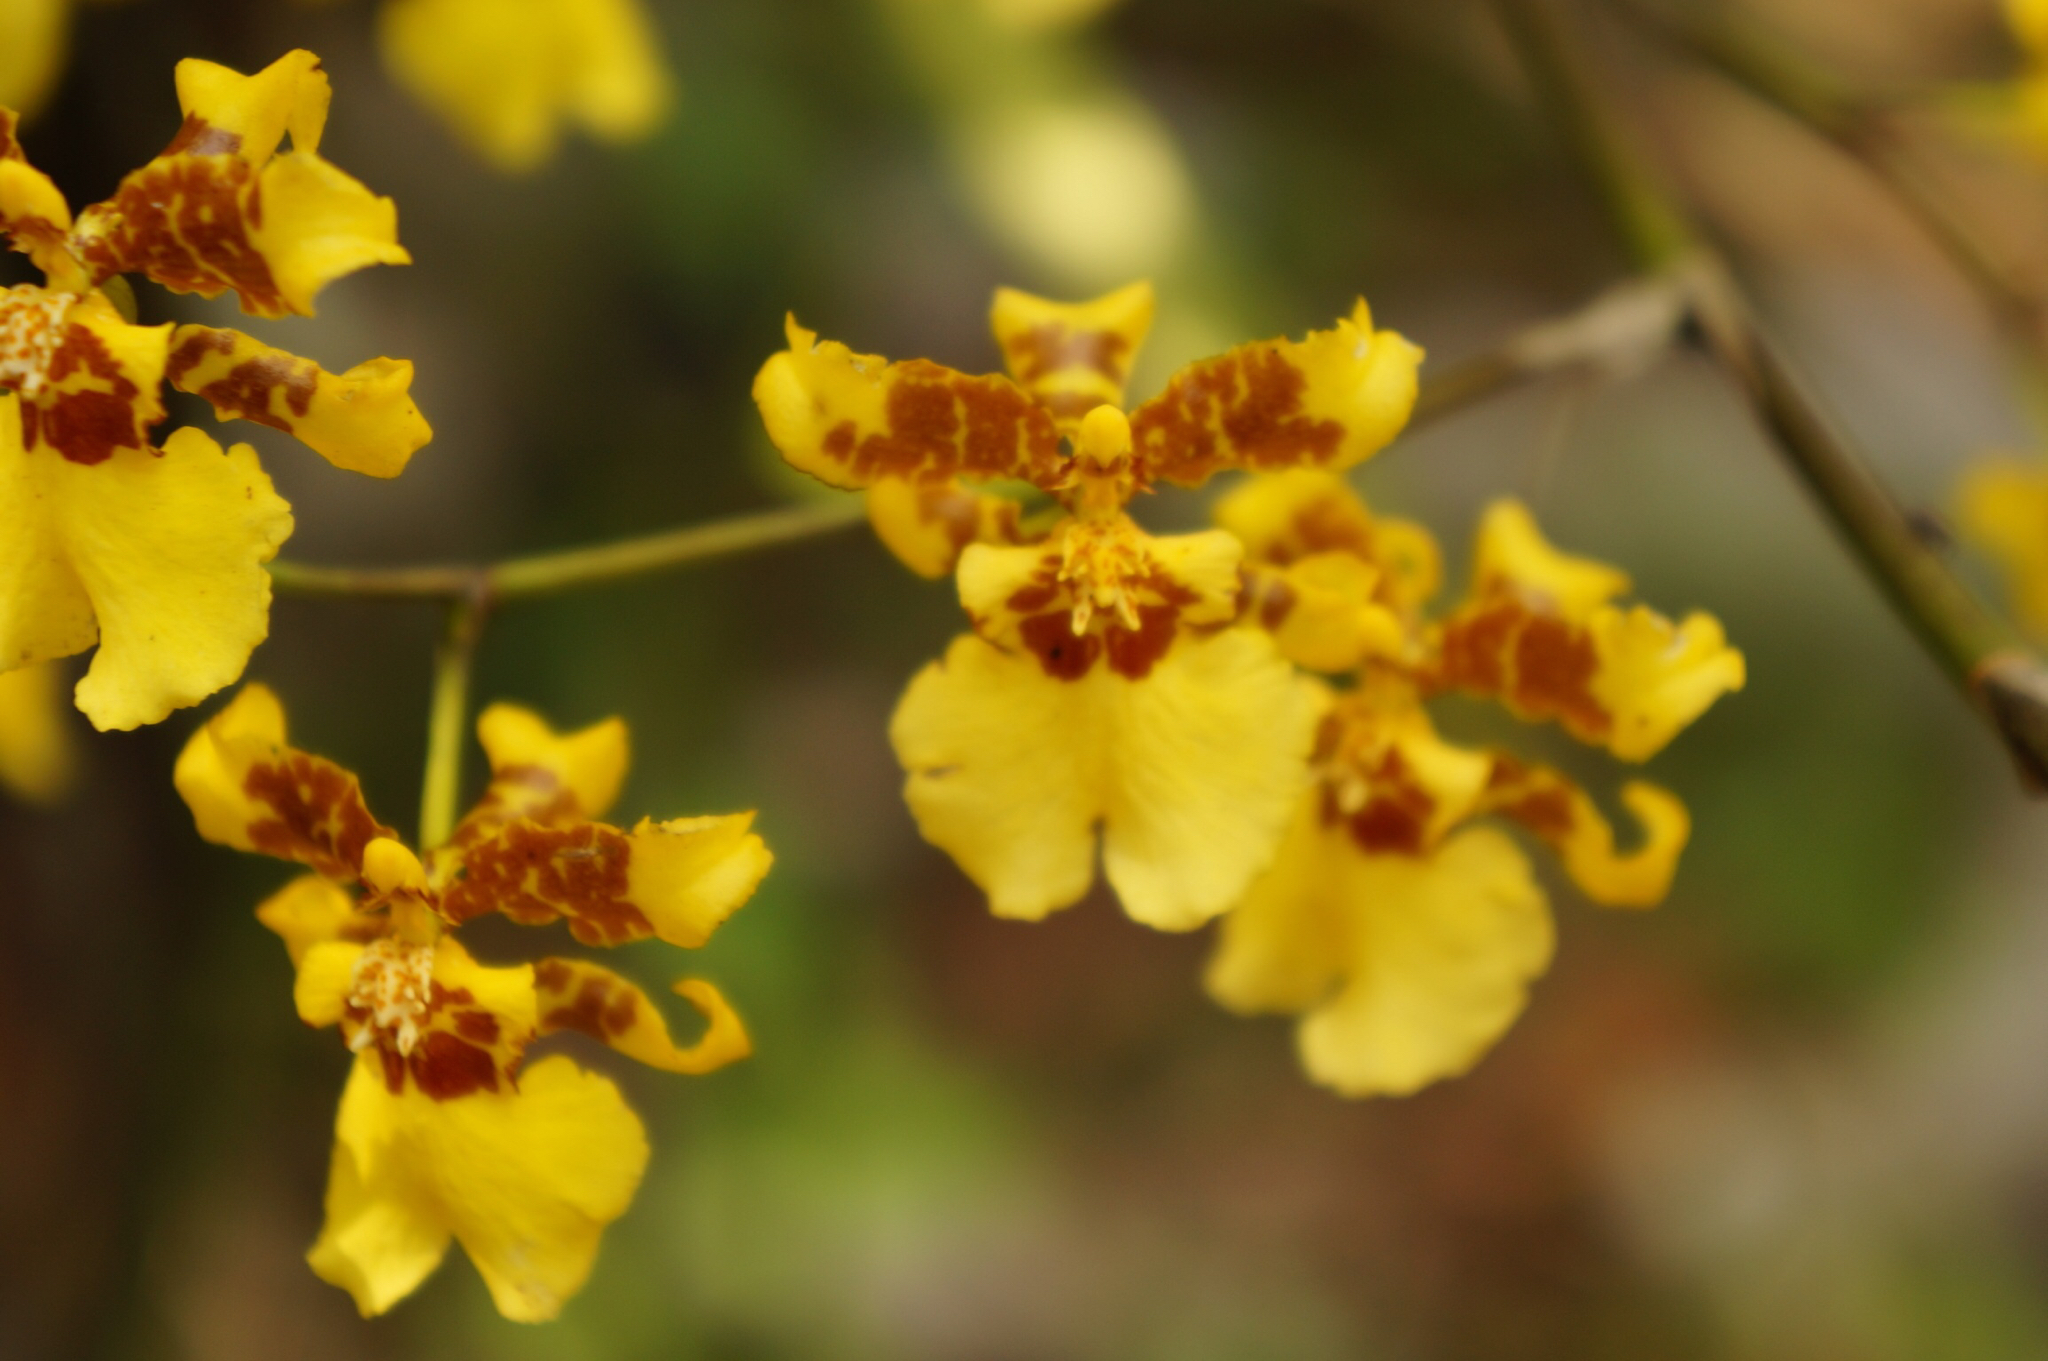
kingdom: Plantae
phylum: Tracheophyta
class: Liliopsida
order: Asparagales
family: Orchidaceae
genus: Oncidium
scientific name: Oncidium sphacelatum
